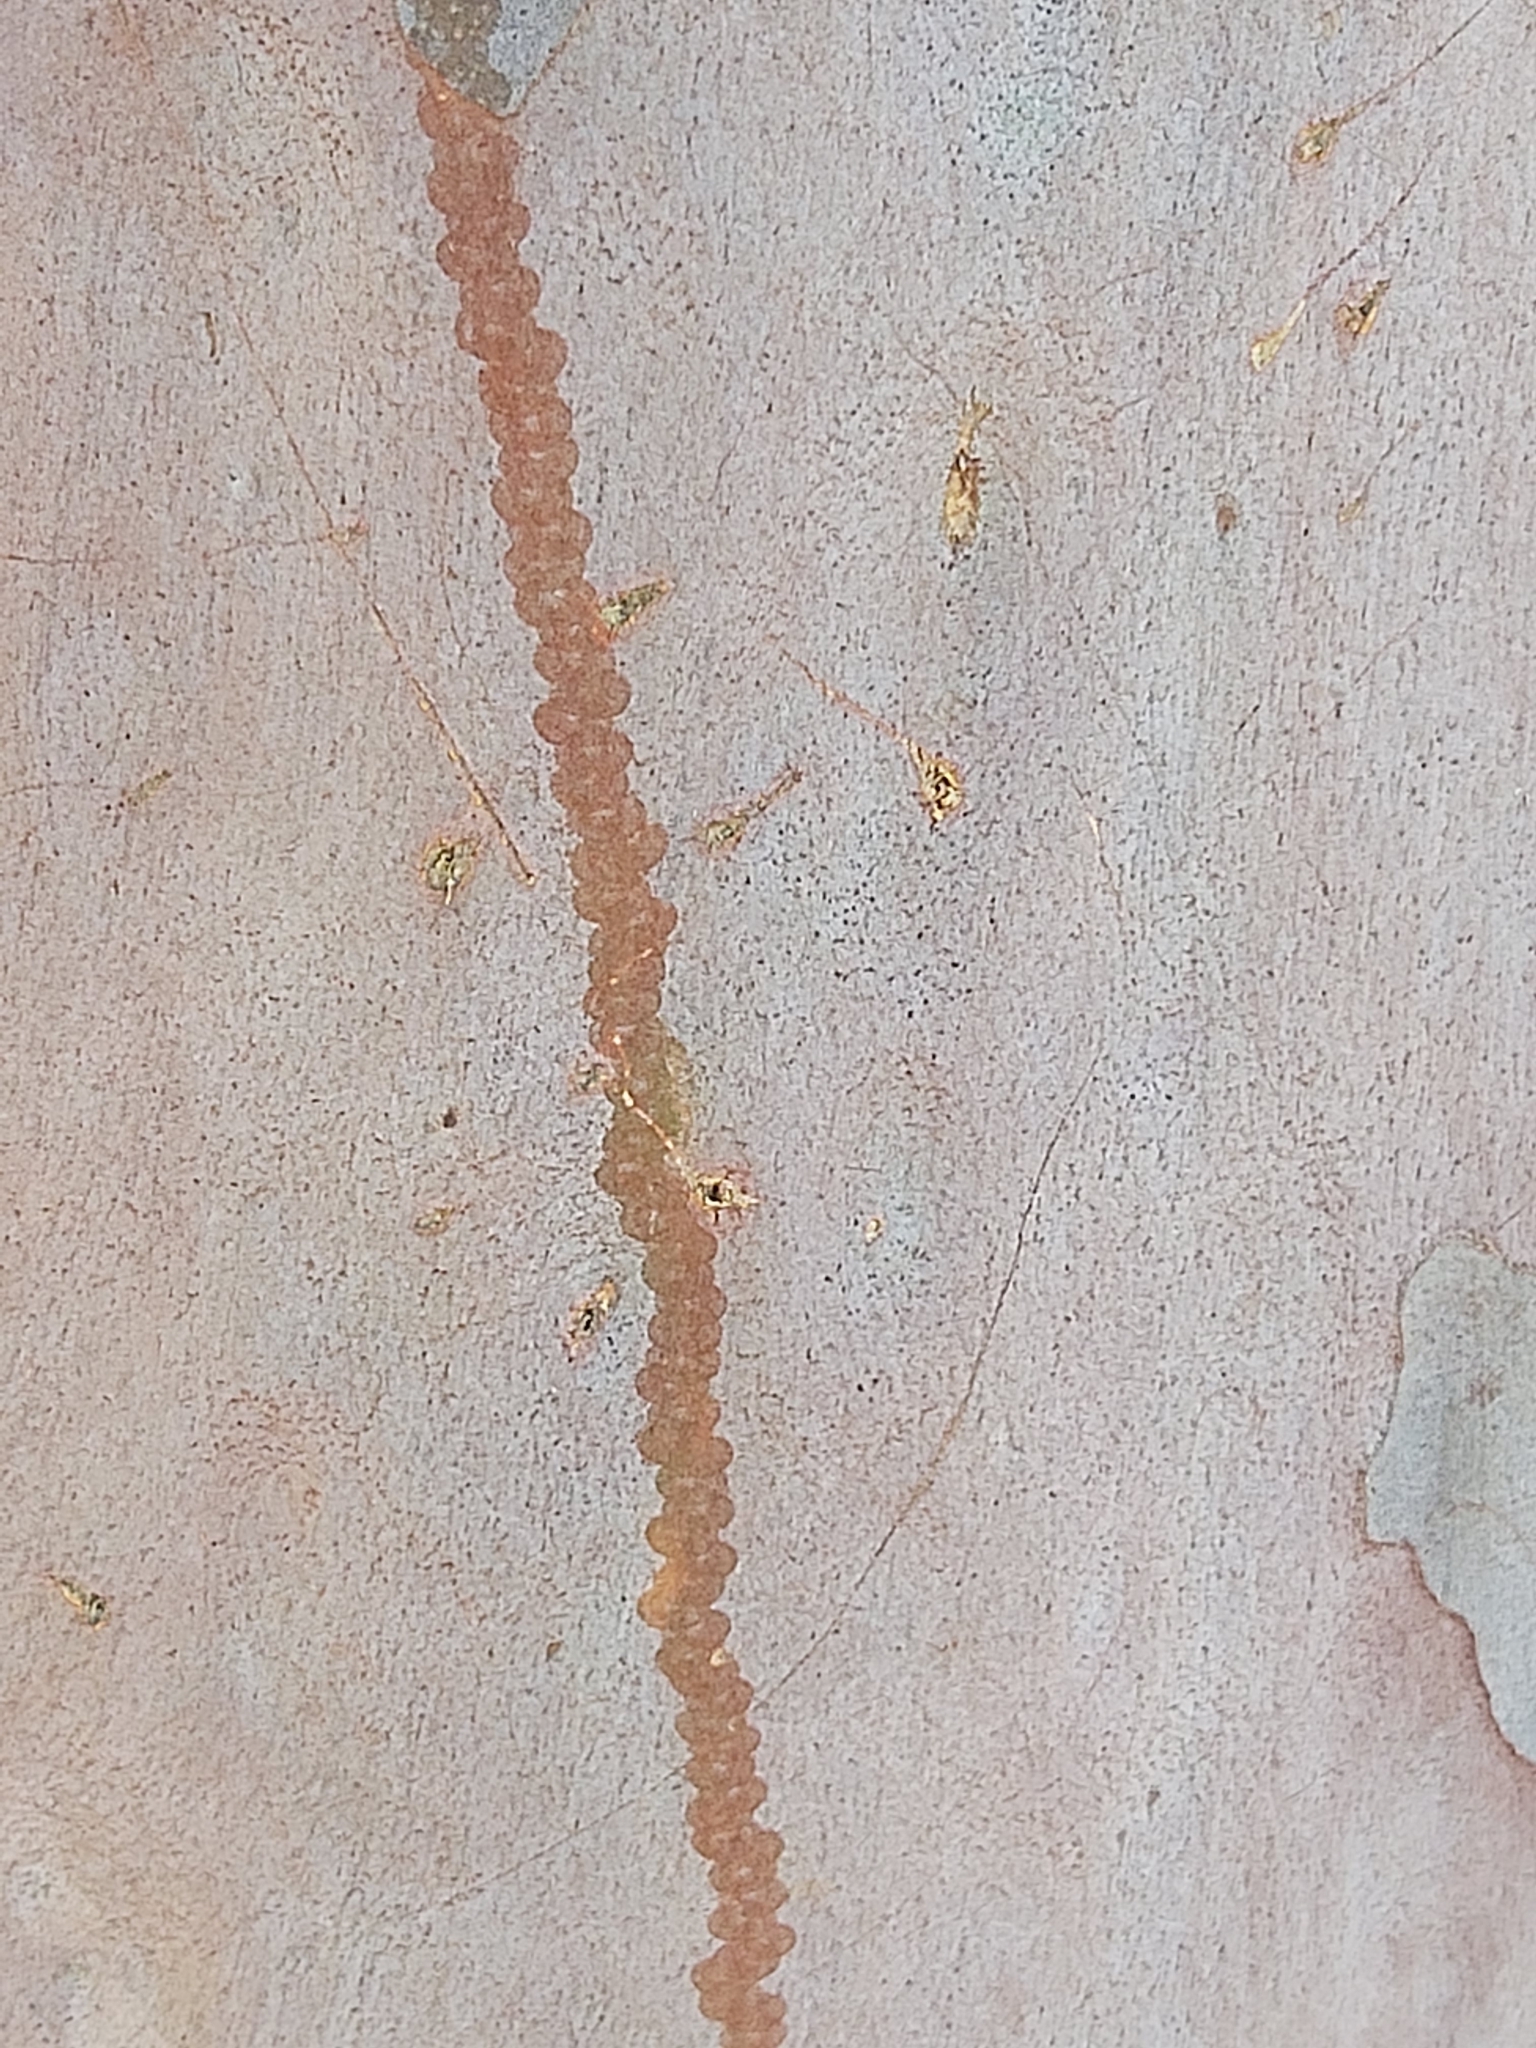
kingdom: Animalia
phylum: Mollusca
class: Gastropoda
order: Stylommatophora
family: Athoracophoridae
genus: Triboniophorus
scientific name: Triboniophorus graeffei
